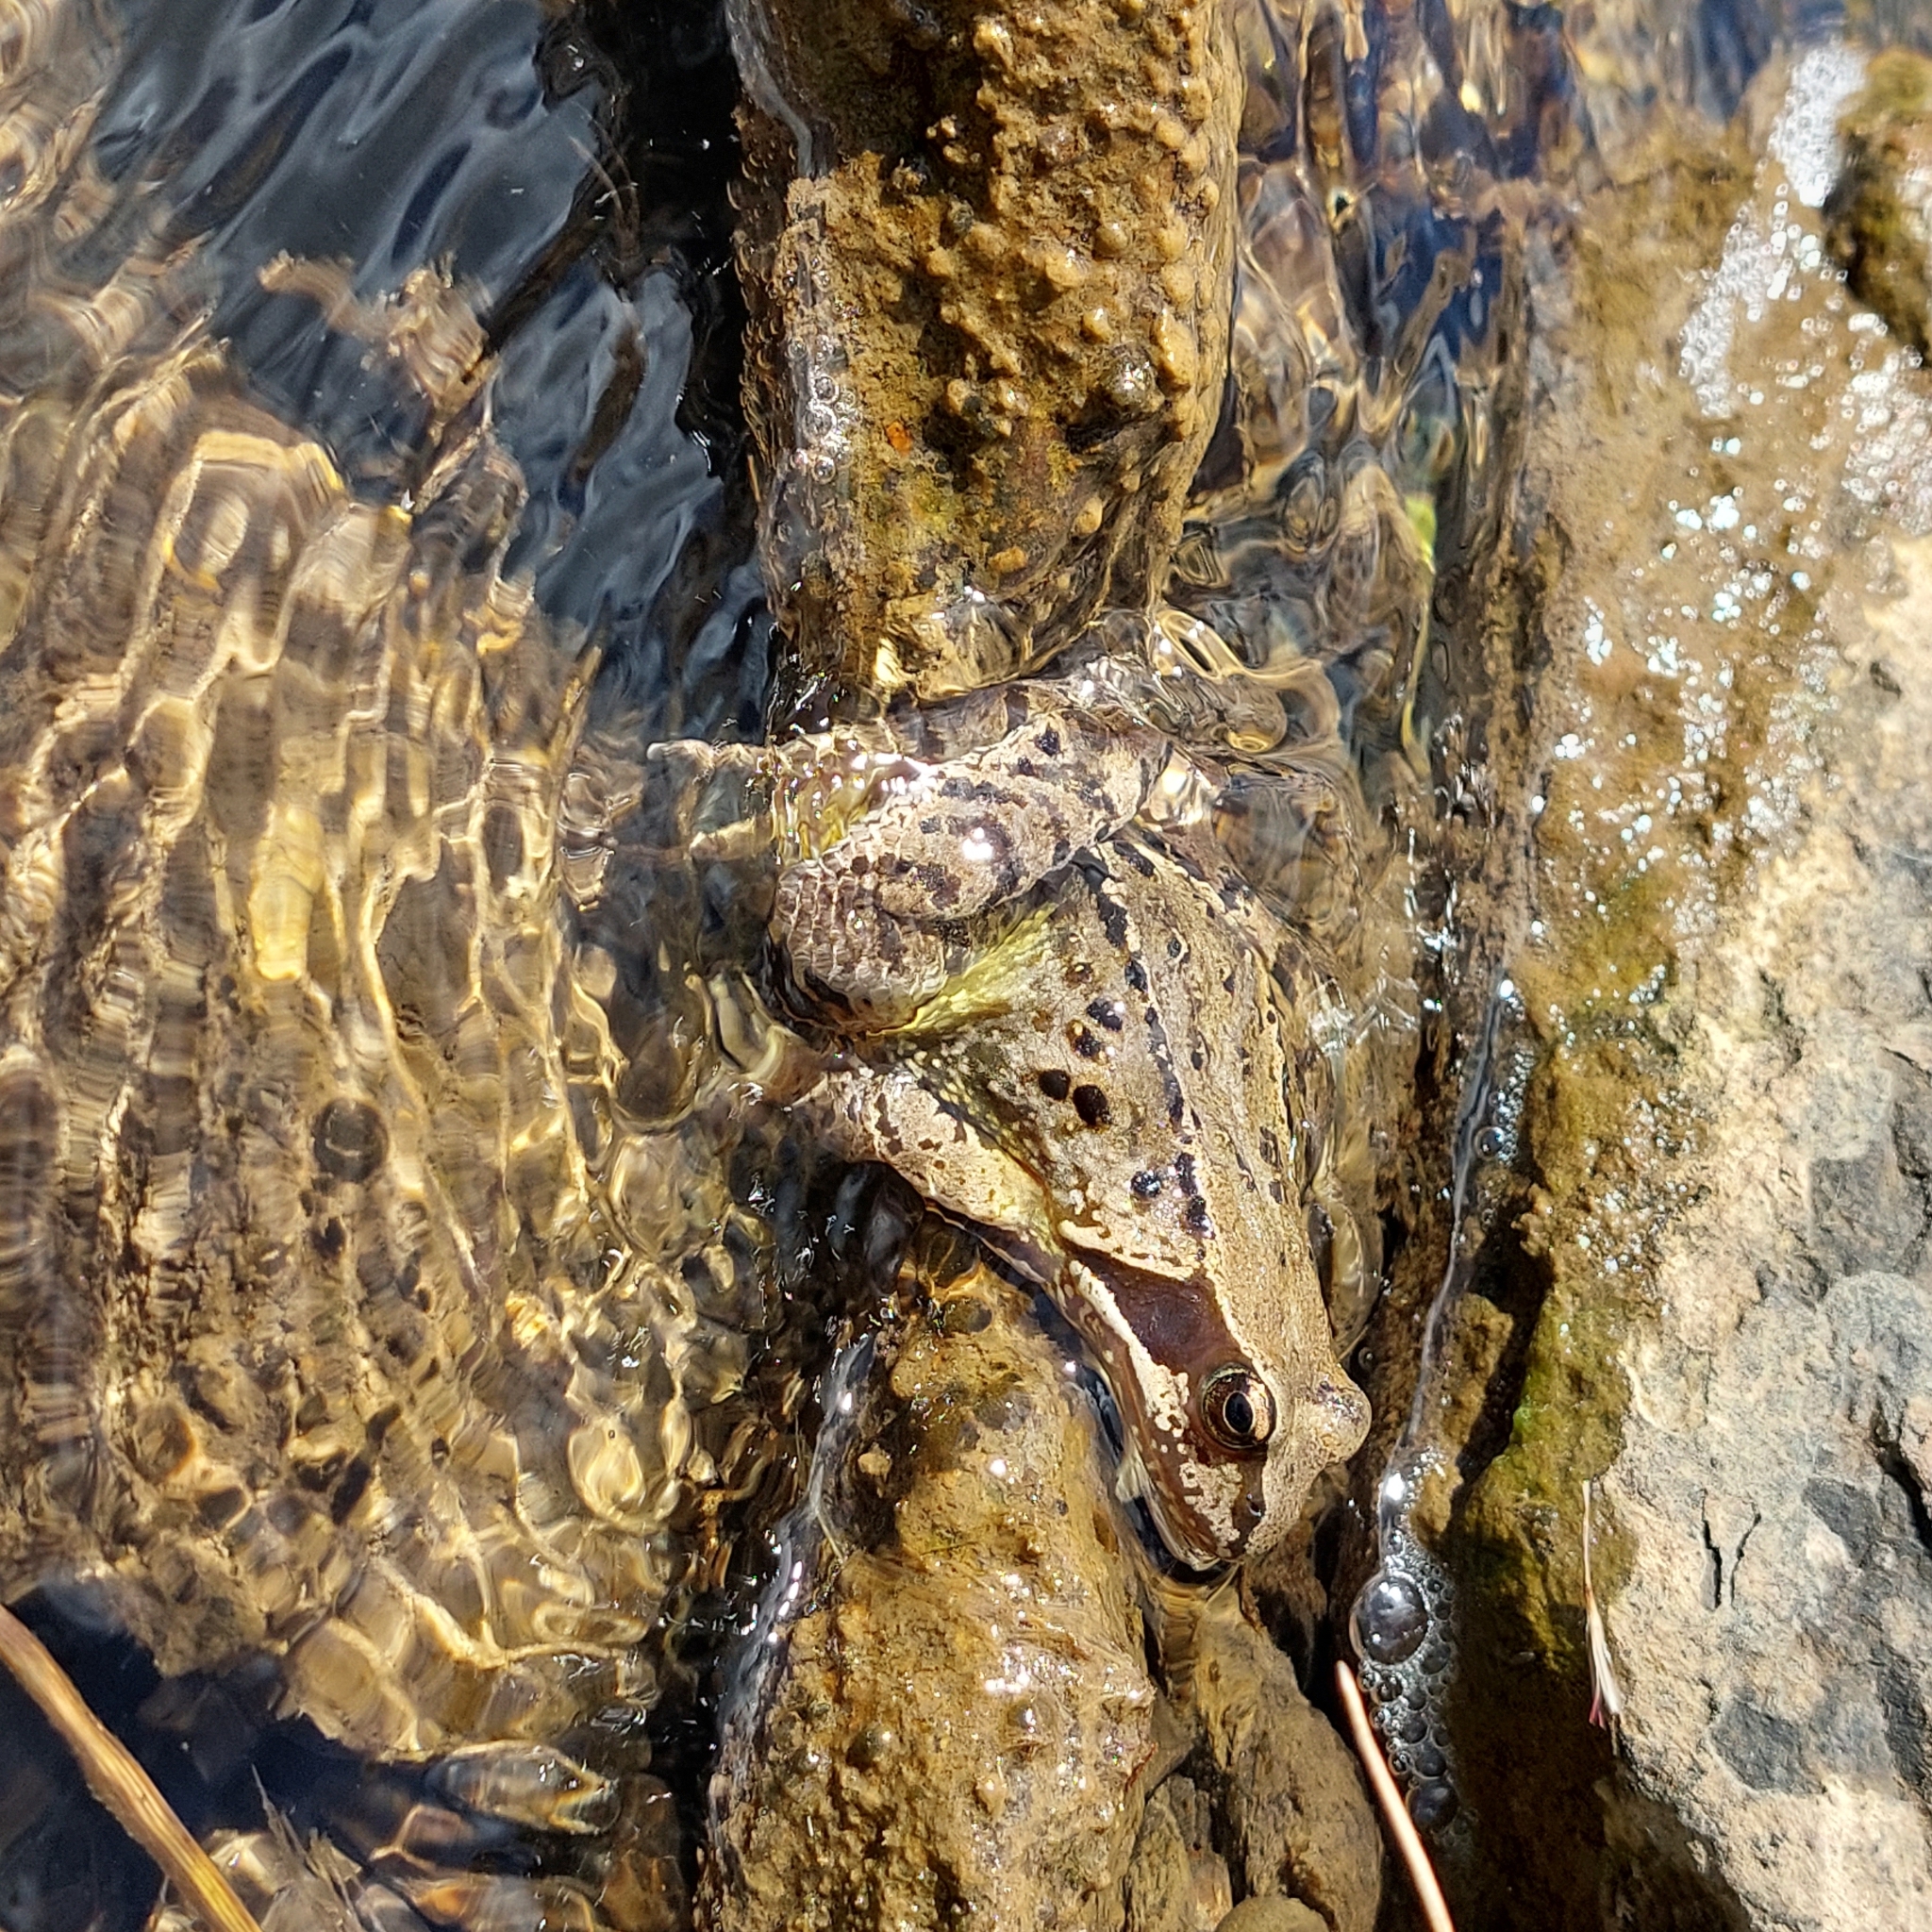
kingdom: Animalia
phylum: Chordata
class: Amphibia
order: Anura
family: Ranidae
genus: Rana
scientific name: Rana temporaria
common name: Common frog
